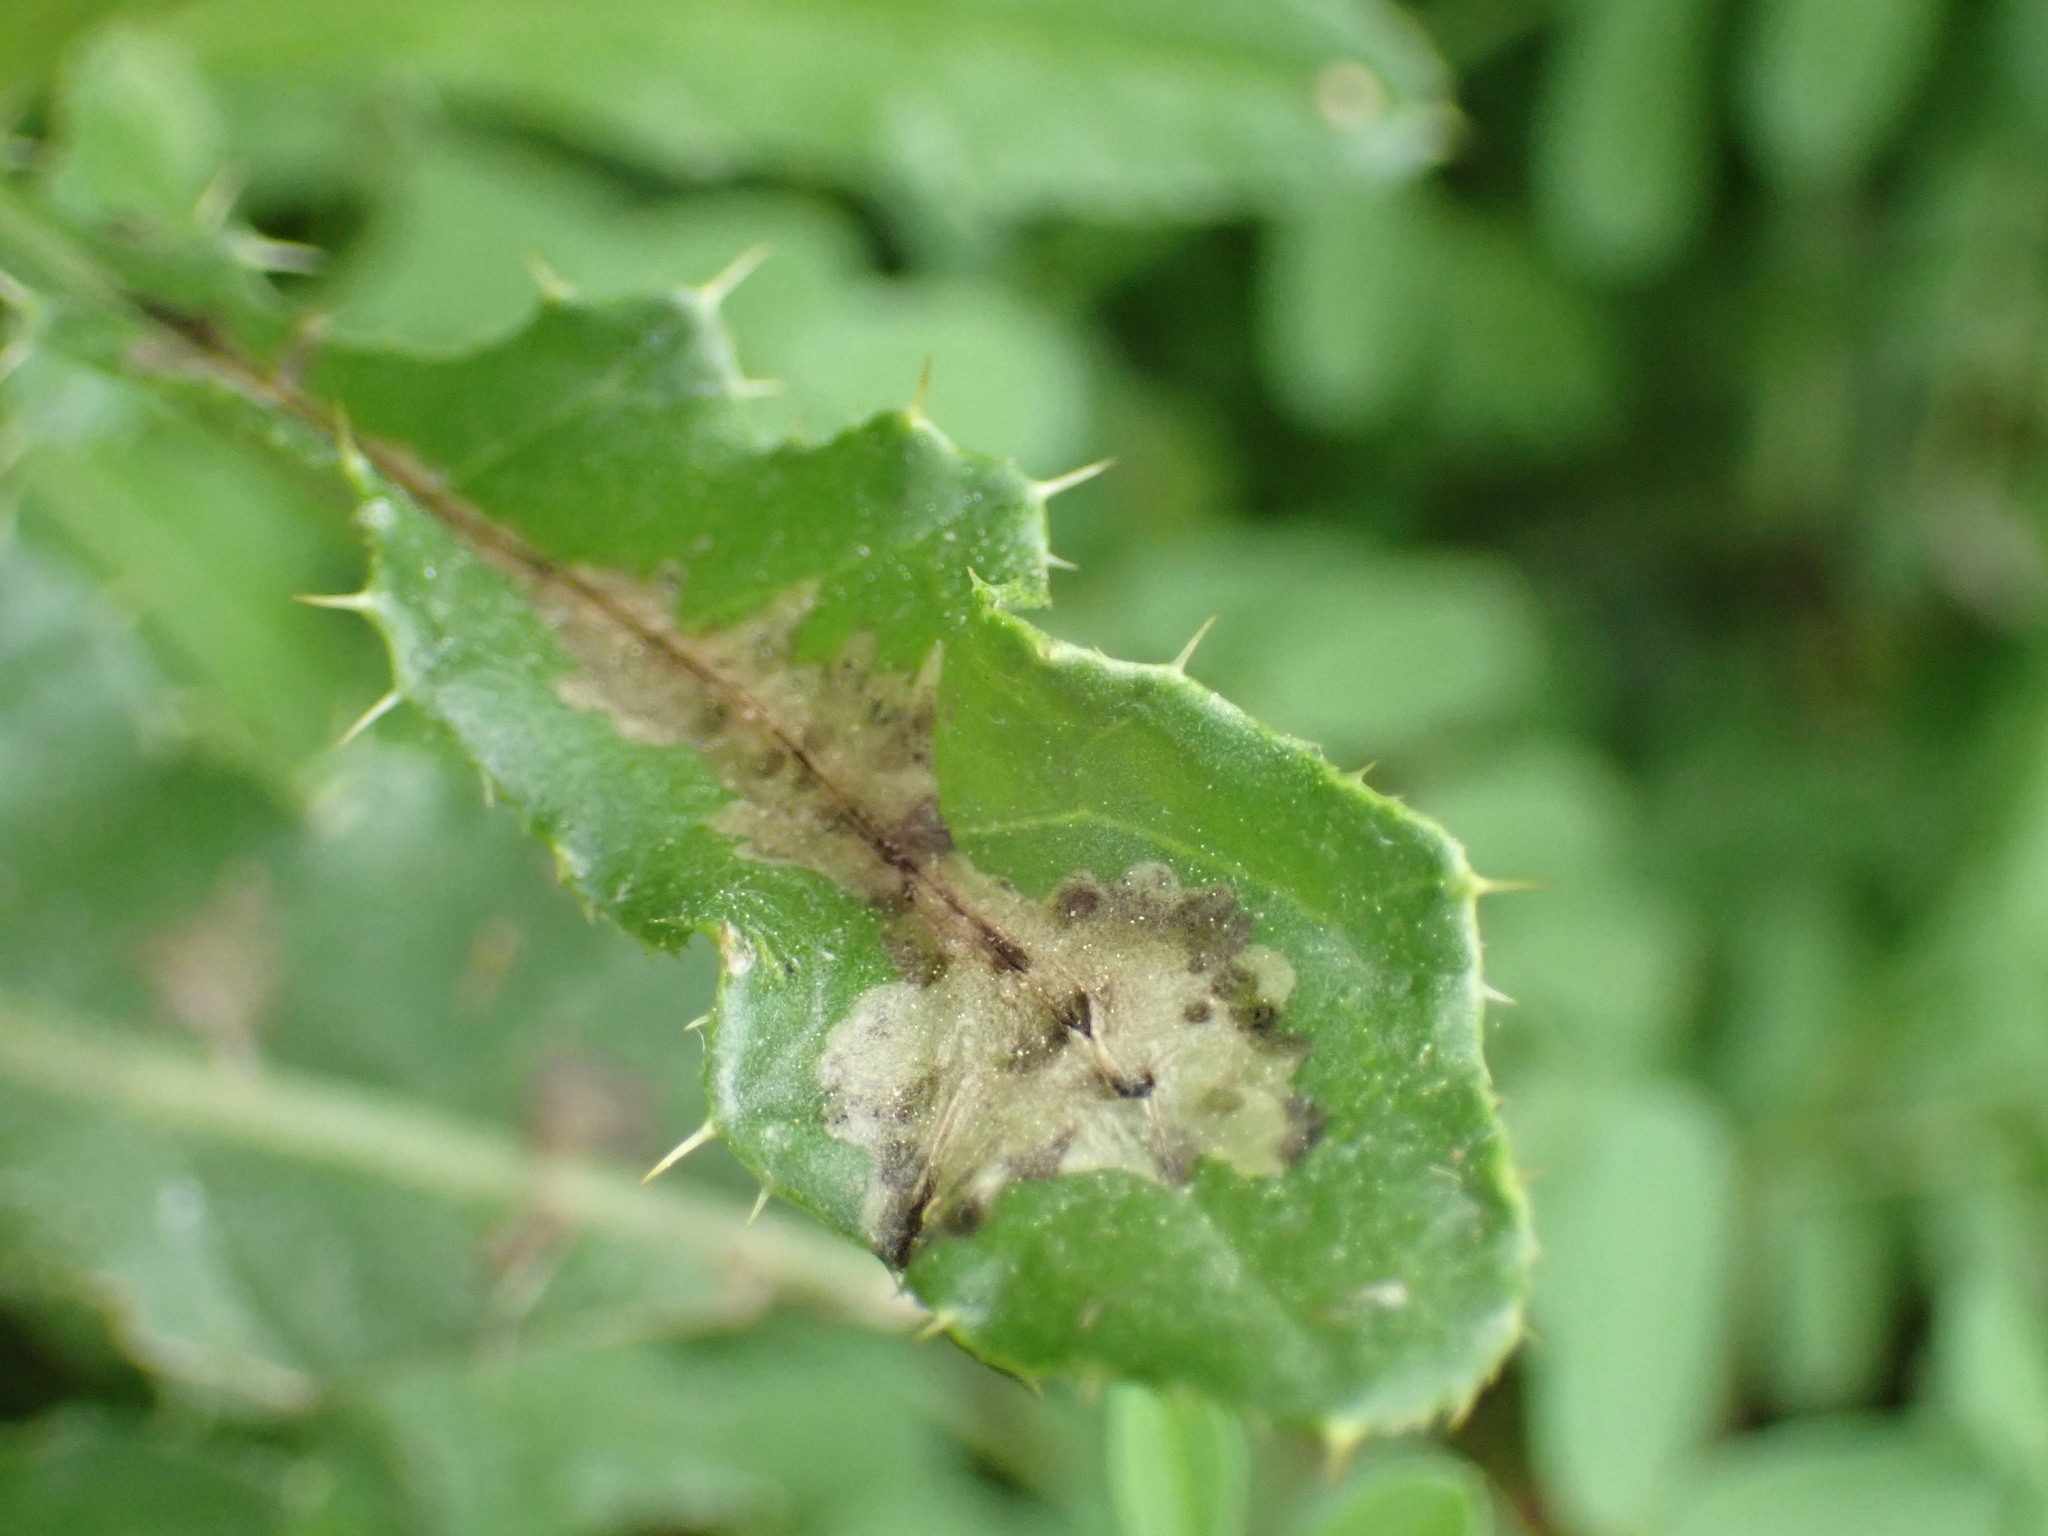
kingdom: Animalia
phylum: Arthropoda
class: Insecta
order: Lepidoptera
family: Gelechiidae
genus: Scrobipalpa
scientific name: Scrobipalpa acuminatella
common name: Pointed groundling
